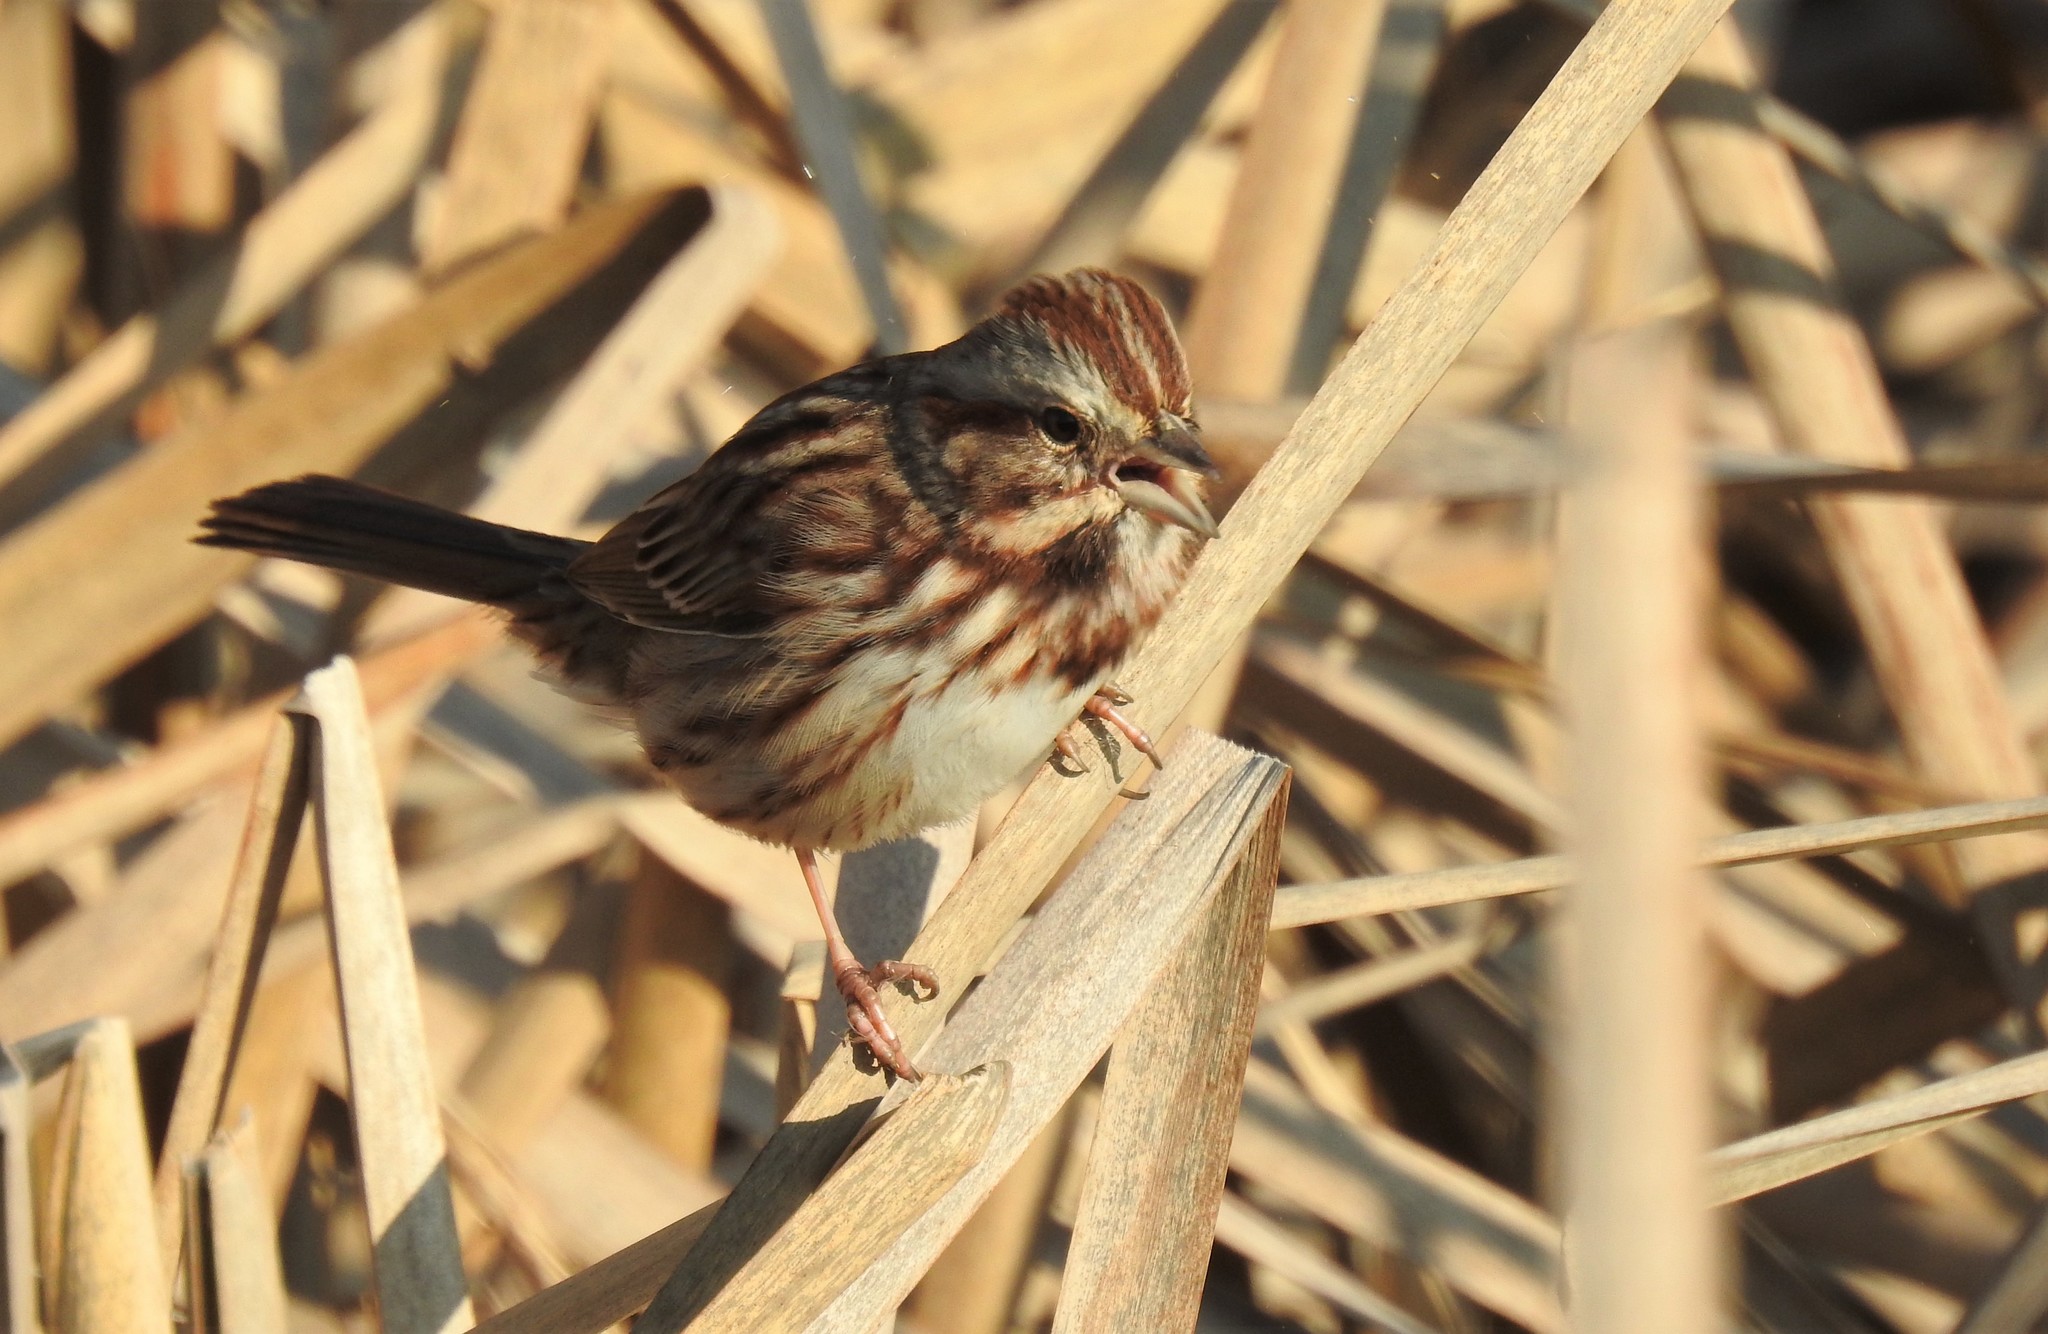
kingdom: Animalia
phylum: Chordata
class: Aves
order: Passeriformes
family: Passerellidae
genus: Melospiza
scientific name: Melospiza melodia
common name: Song sparrow
